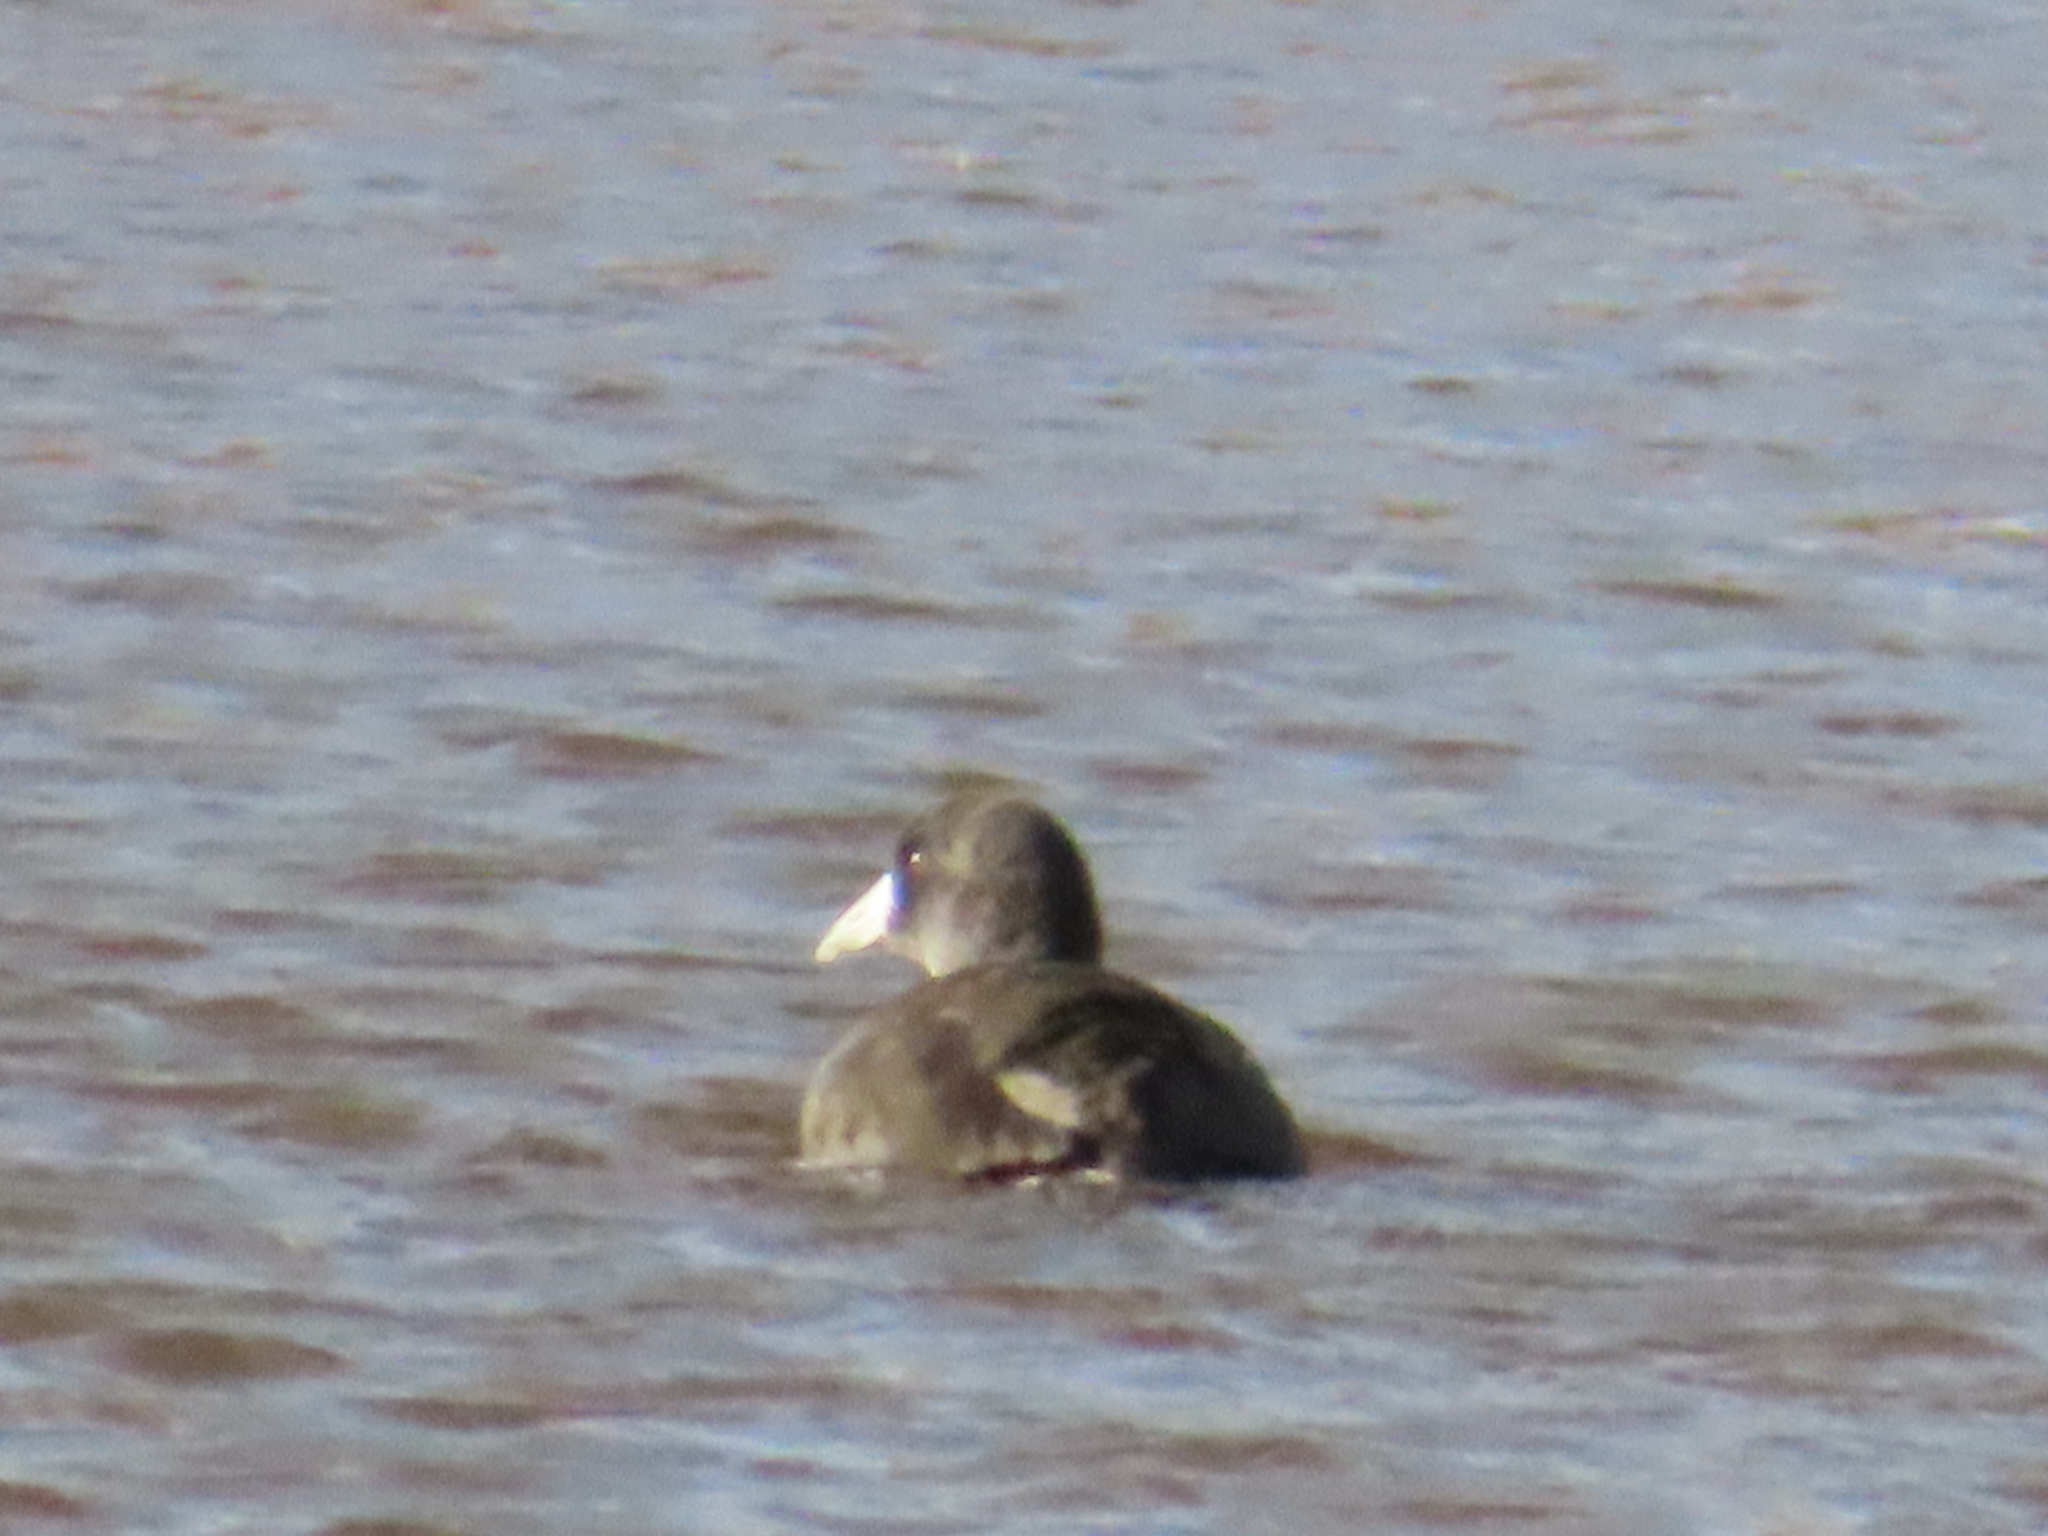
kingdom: Animalia
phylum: Chordata
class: Aves
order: Gruiformes
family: Rallidae
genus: Fulica
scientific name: Fulica americana
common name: American coot
